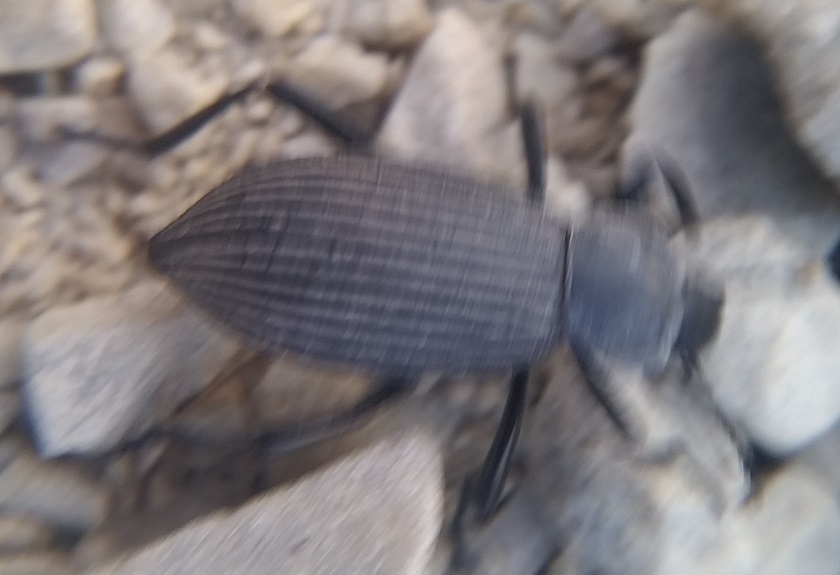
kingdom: Animalia
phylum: Arthropoda
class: Insecta
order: Coleoptera
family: Tenebrionidae
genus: Eleodes
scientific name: Eleodes hispilabris
